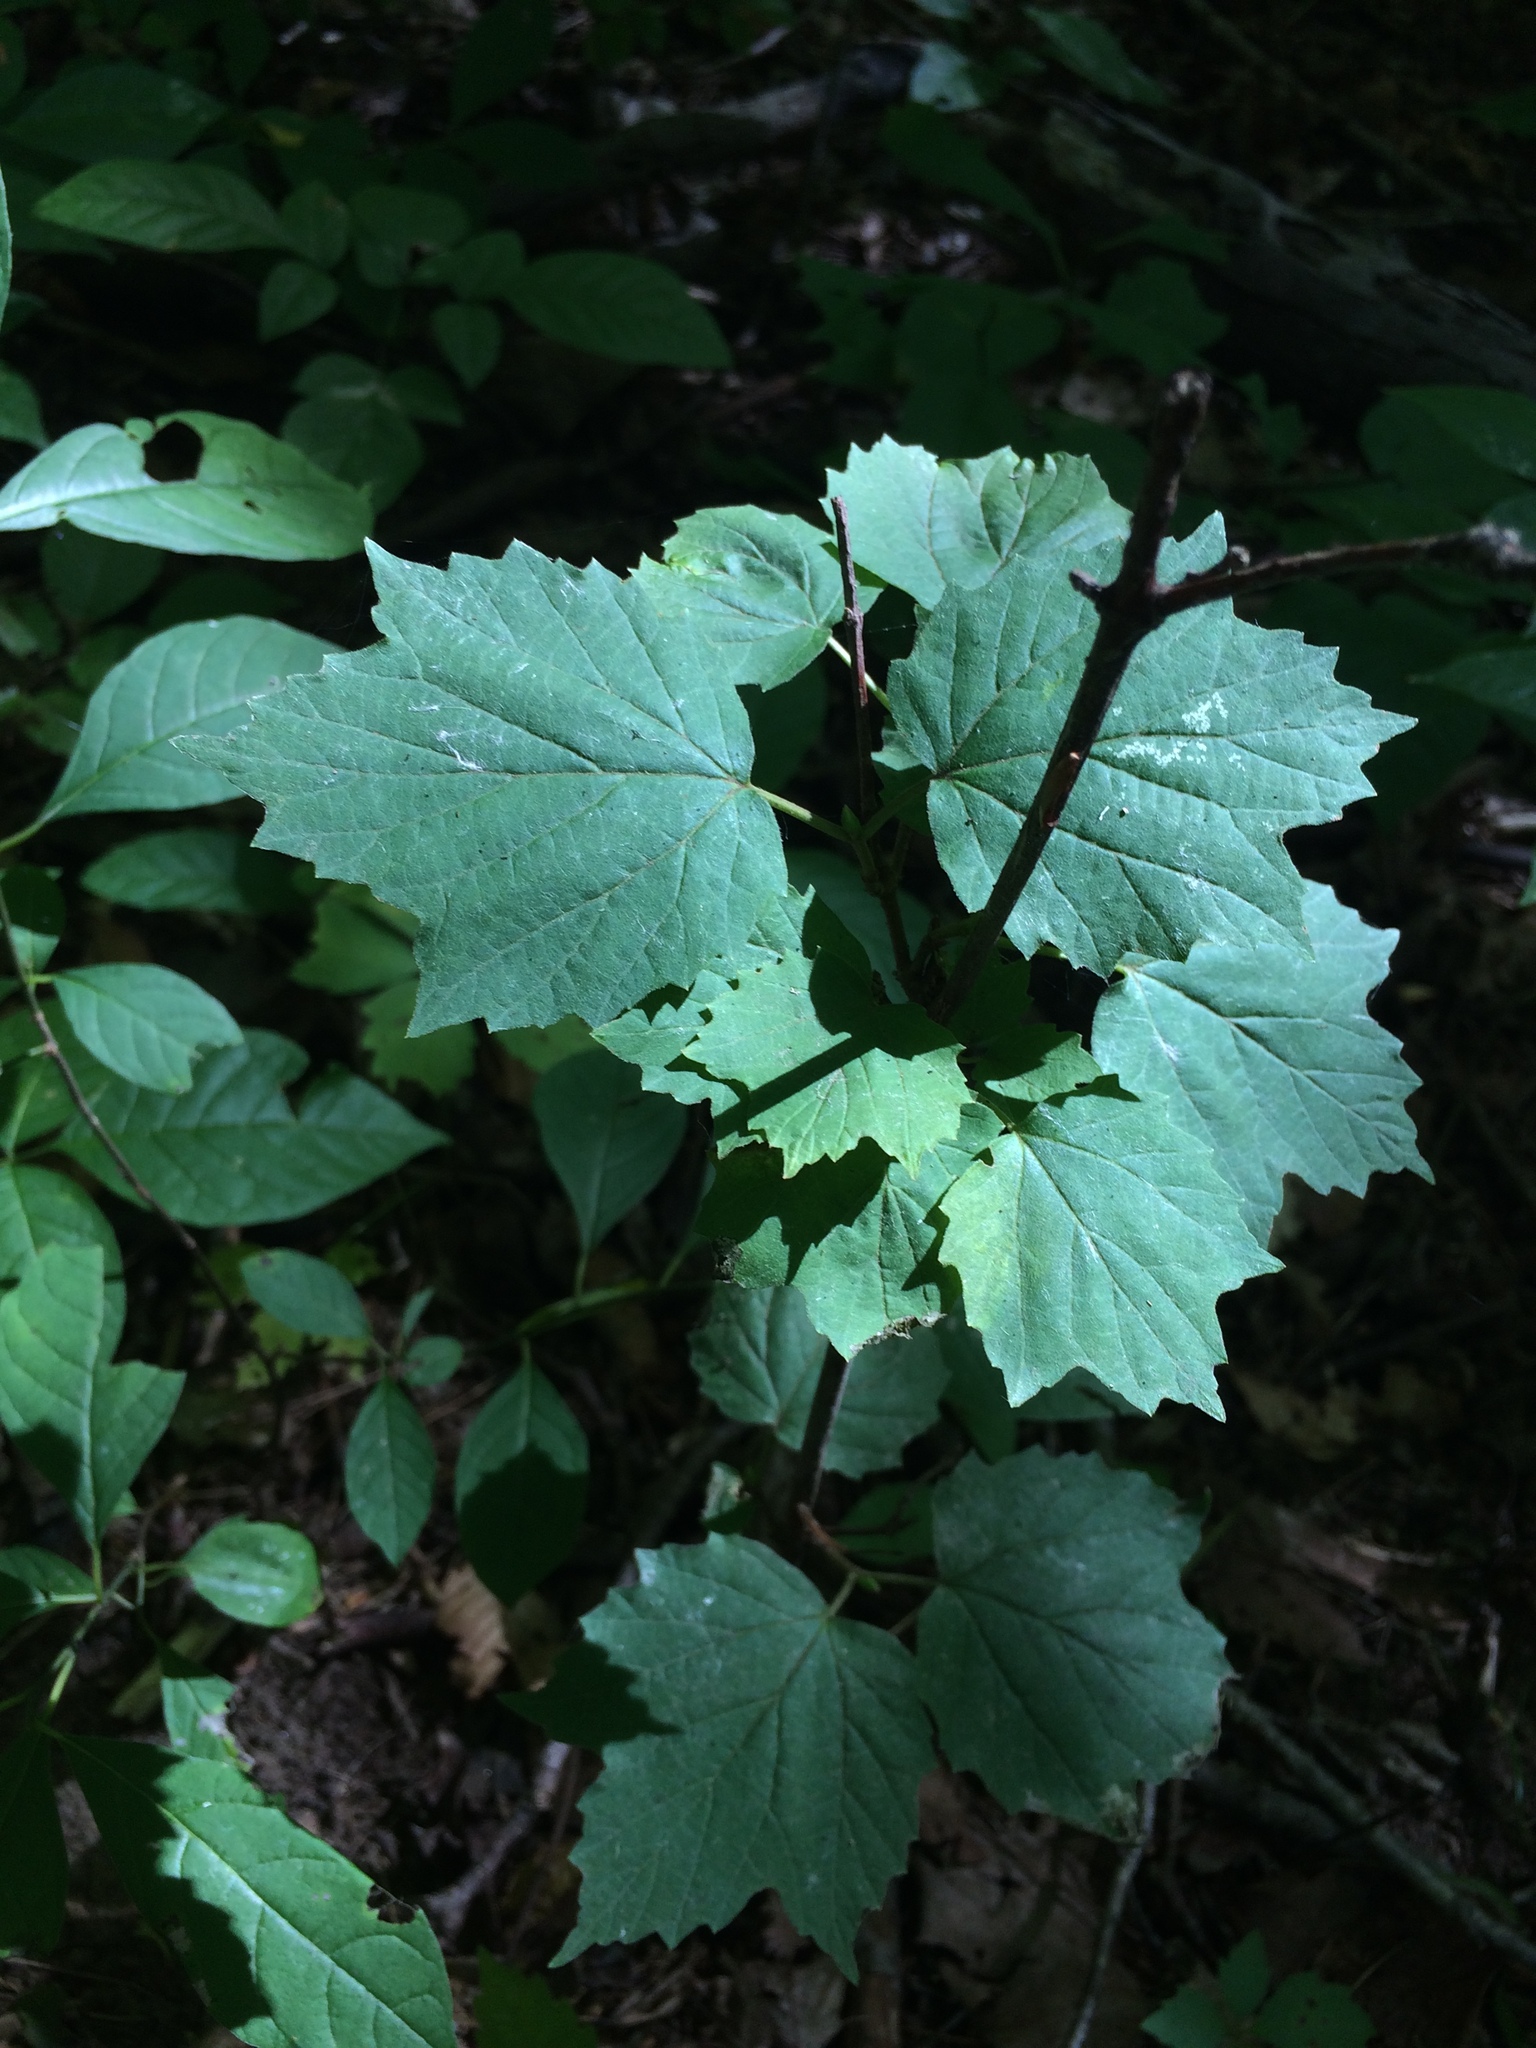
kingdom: Plantae
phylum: Tracheophyta
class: Magnoliopsida
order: Dipsacales
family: Viburnaceae
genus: Viburnum
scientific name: Viburnum acerifolium
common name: Dockmackie
